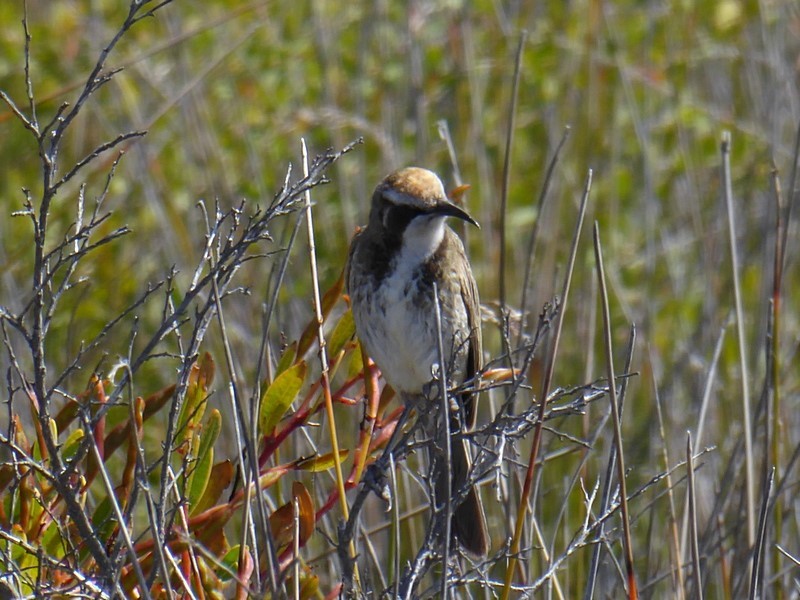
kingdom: Animalia
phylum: Chordata
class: Aves
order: Passeriformes
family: Meliphagidae
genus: Gliciphila
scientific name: Gliciphila melanops
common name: Tawny-crowned honeyeater
